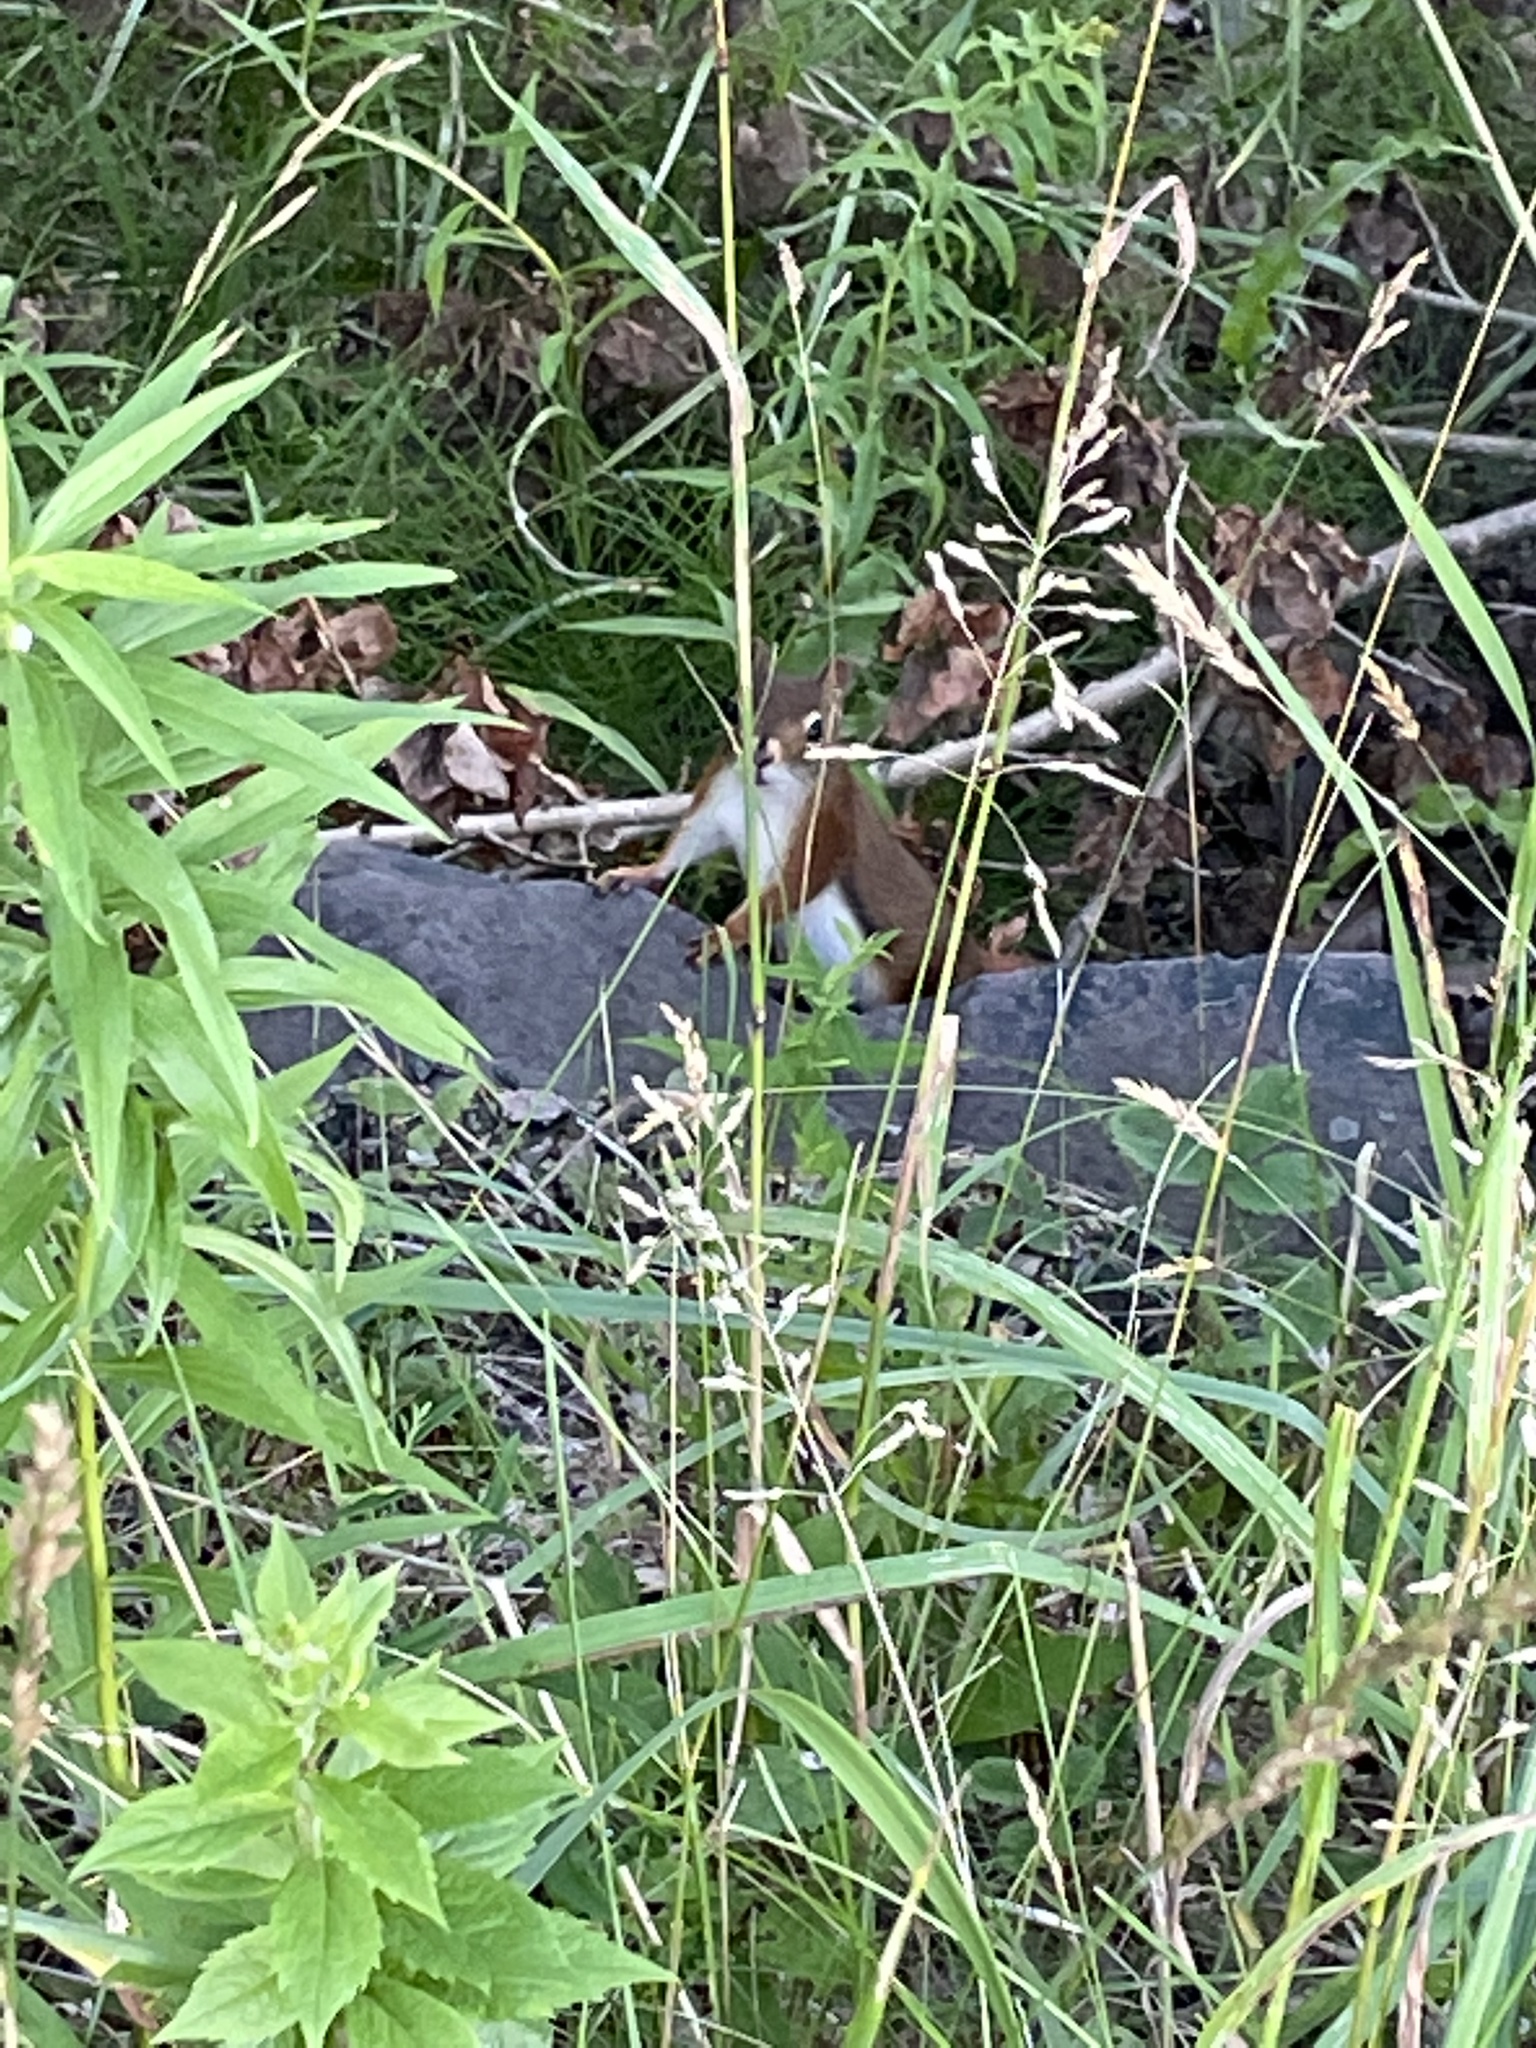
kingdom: Animalia
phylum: Chordata
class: Mammalia
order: Rodentia
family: Sciuridae
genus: Tamiasciurus
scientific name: Tamiasciurus hudsonicus
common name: Red squirrel
